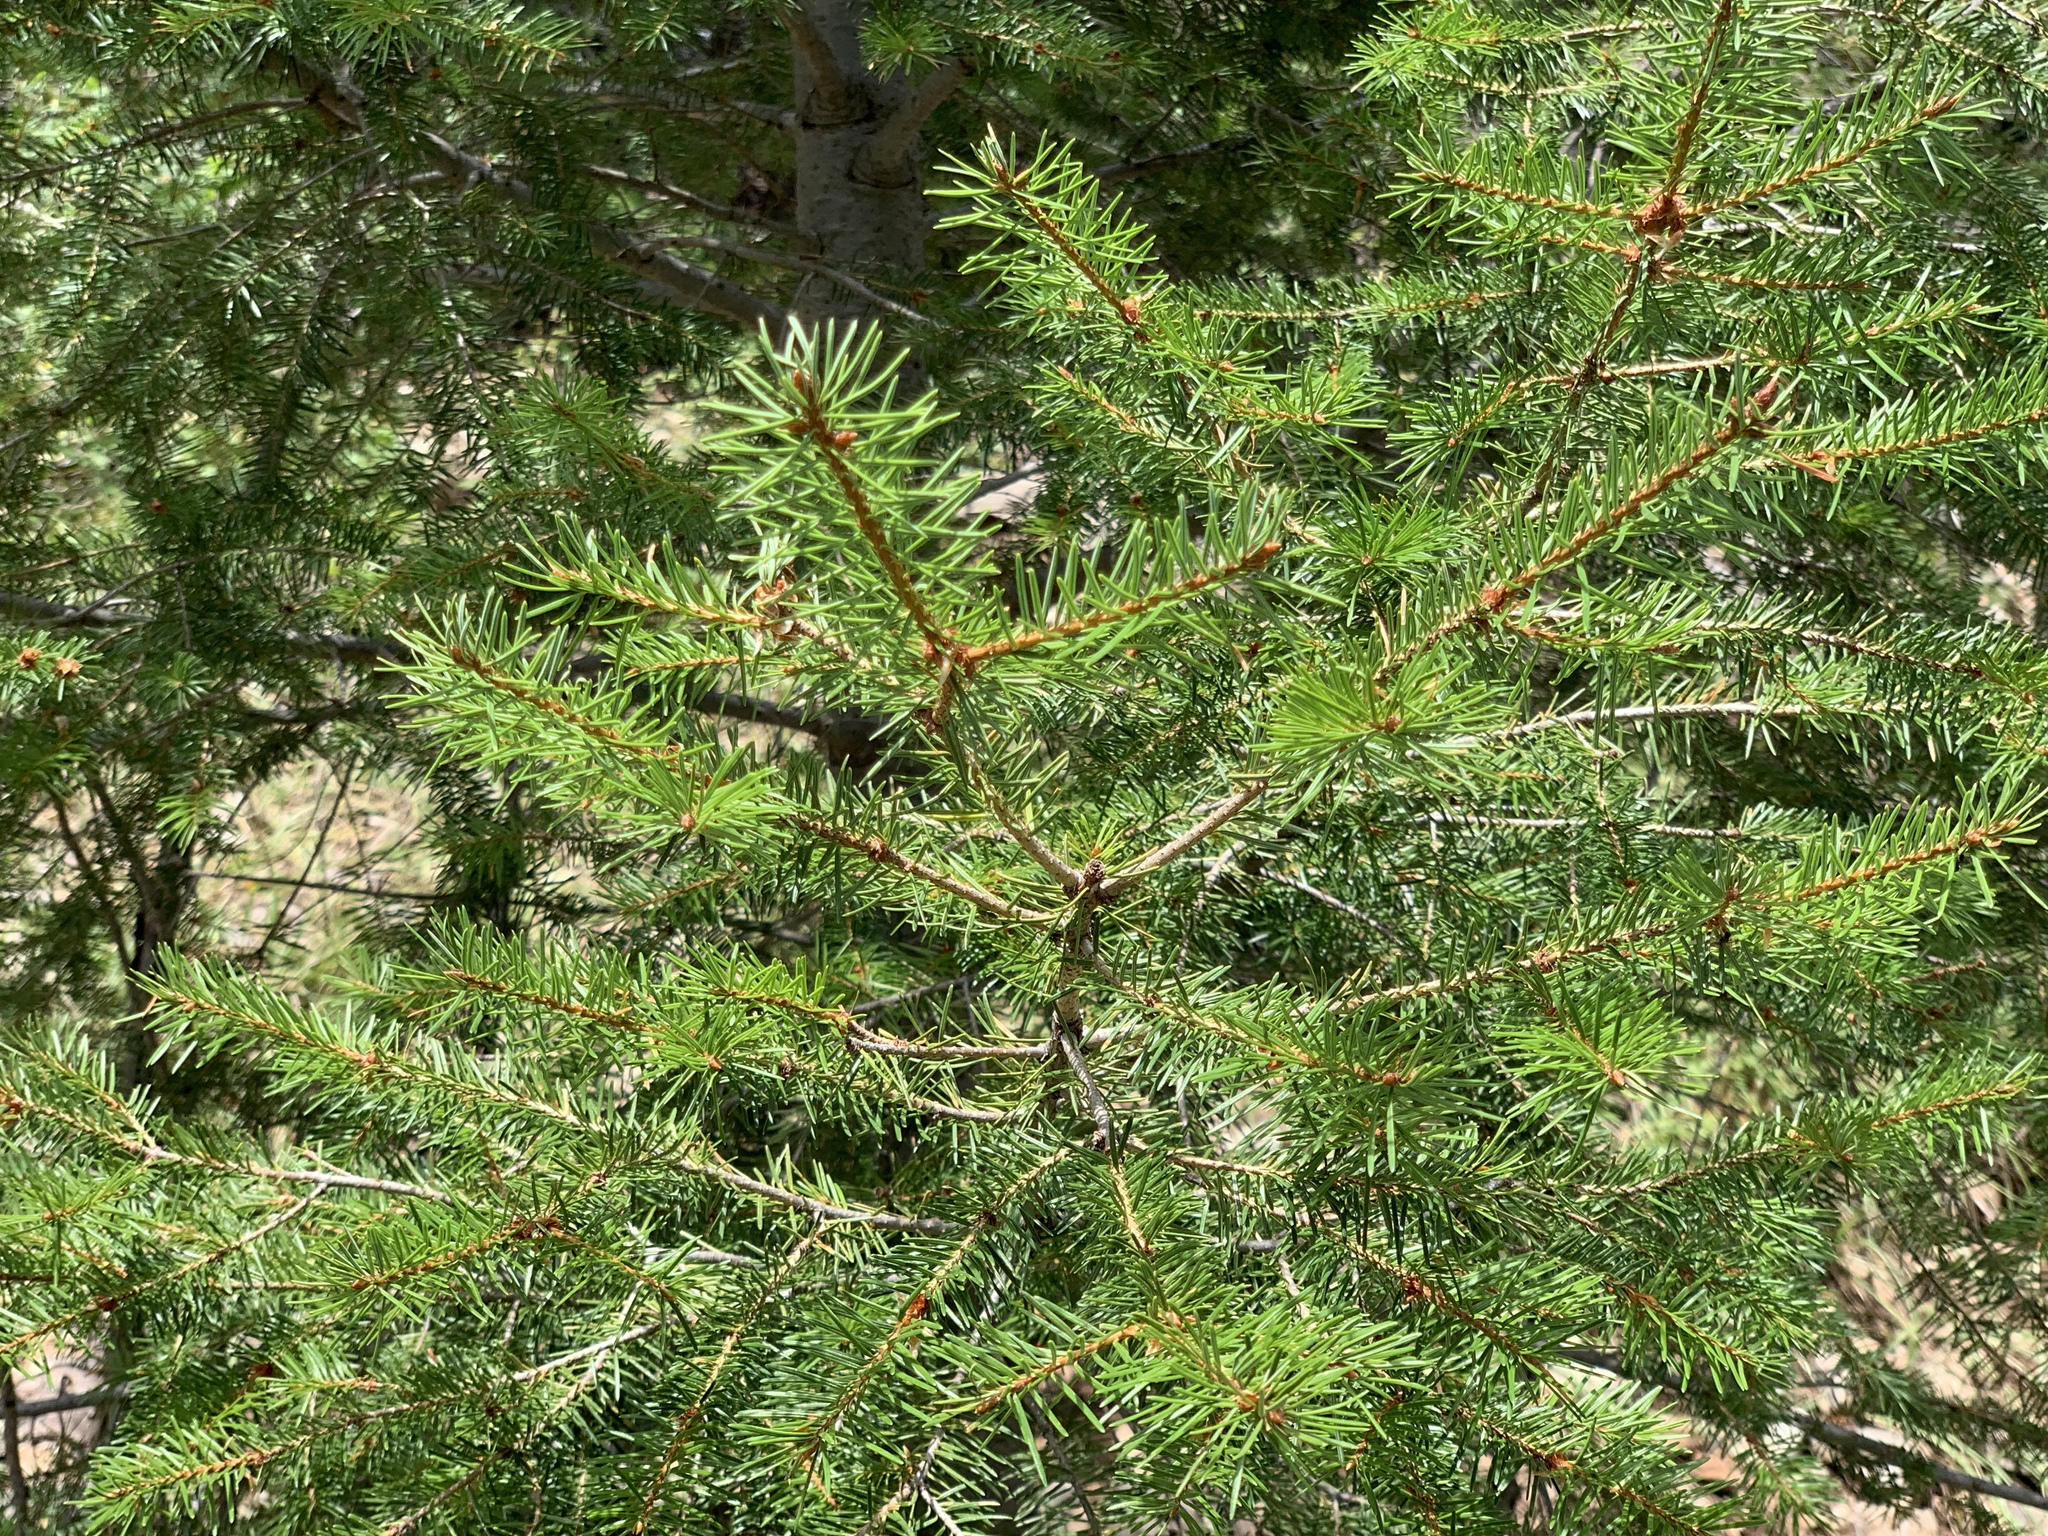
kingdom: Plantae
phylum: Tracheophyta
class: Pinopsida
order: Pinales
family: Pinaceae
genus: Pseudotsuga
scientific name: Pseudotsuga menziesii
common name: Douglas fir
